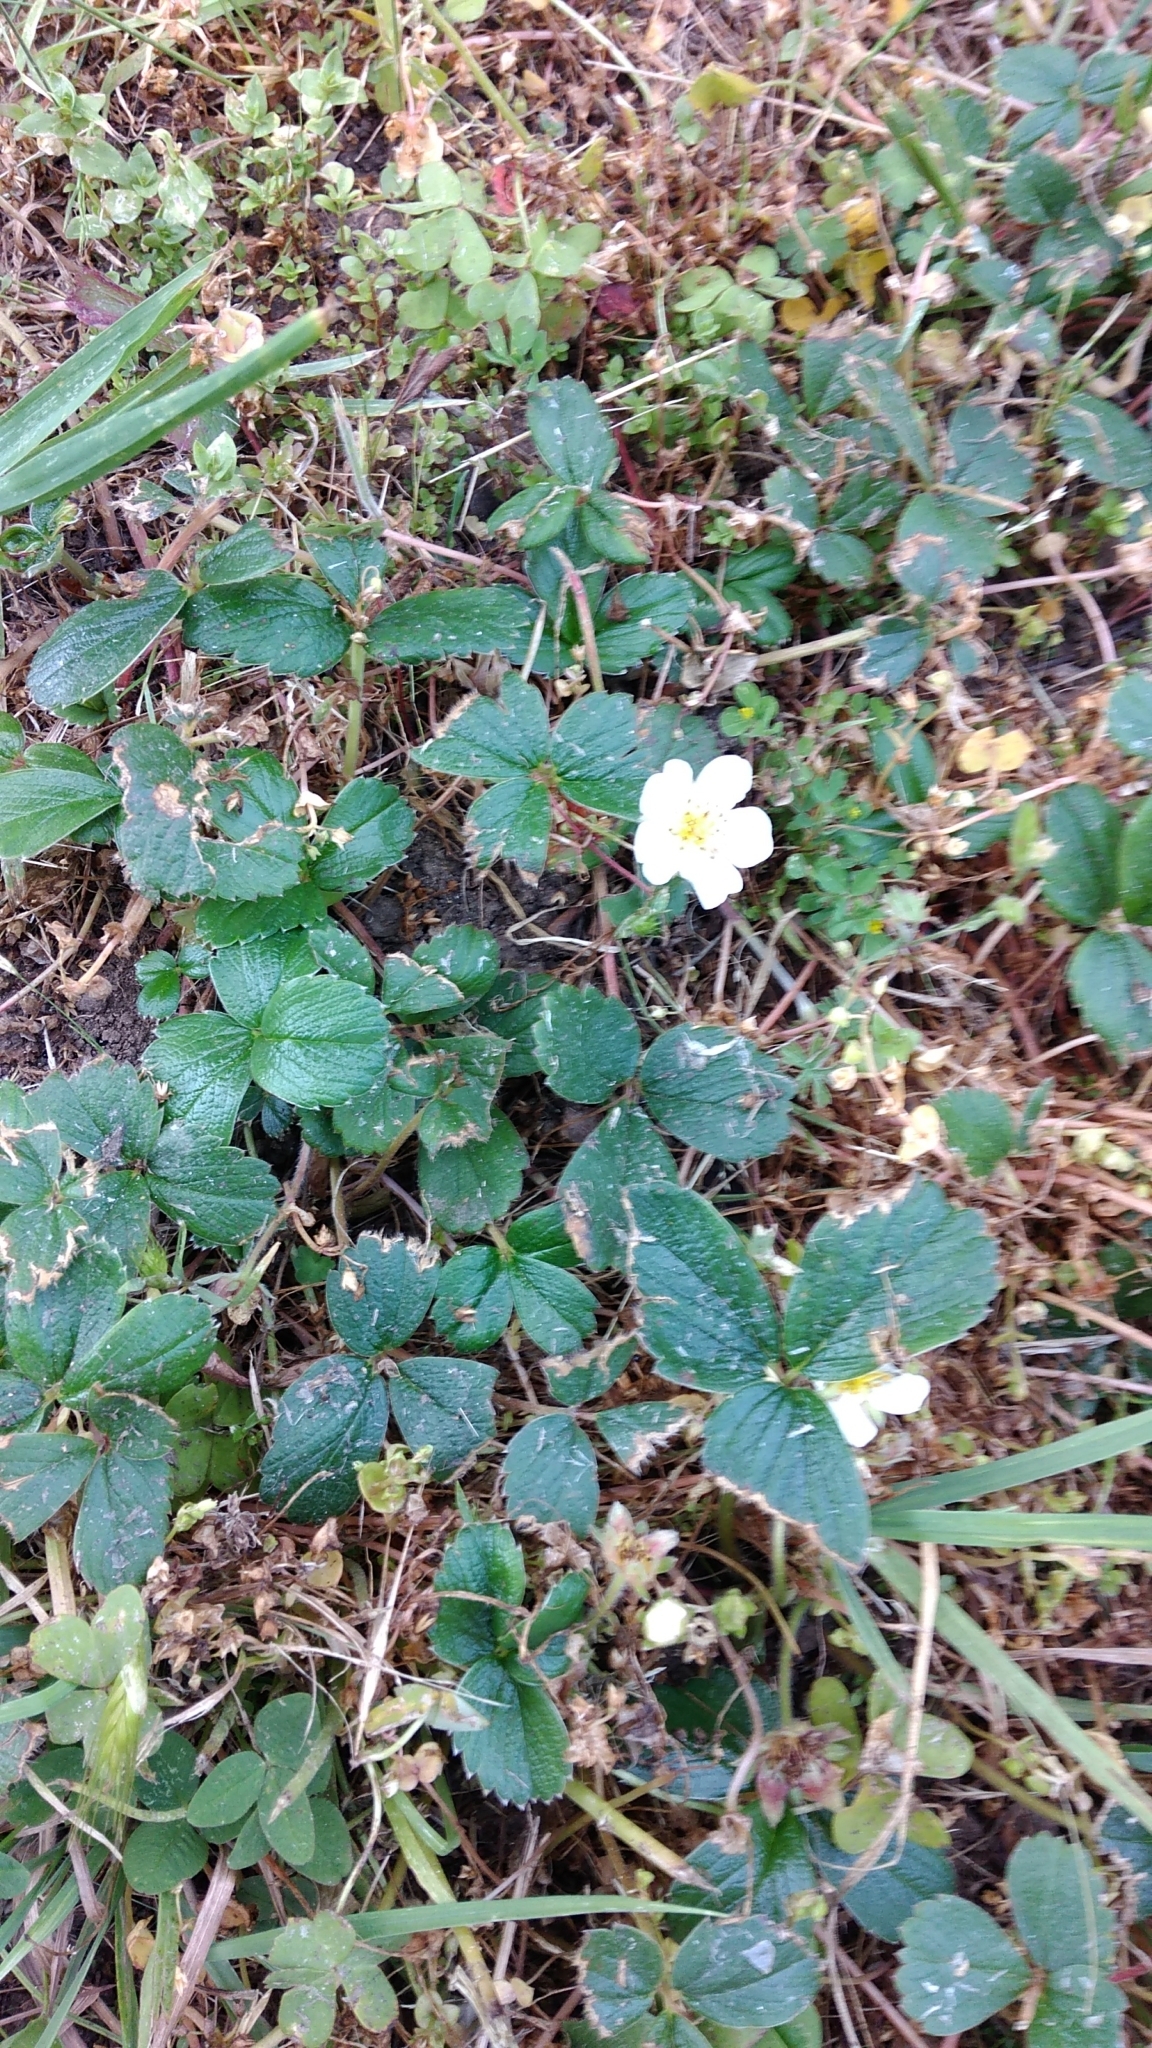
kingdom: Plantae
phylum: Tracheophyta
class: Magnoliopsida
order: Rosales
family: Rosaceae
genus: Fragaria
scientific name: Fragaria chiloensis
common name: Beach strawberry
